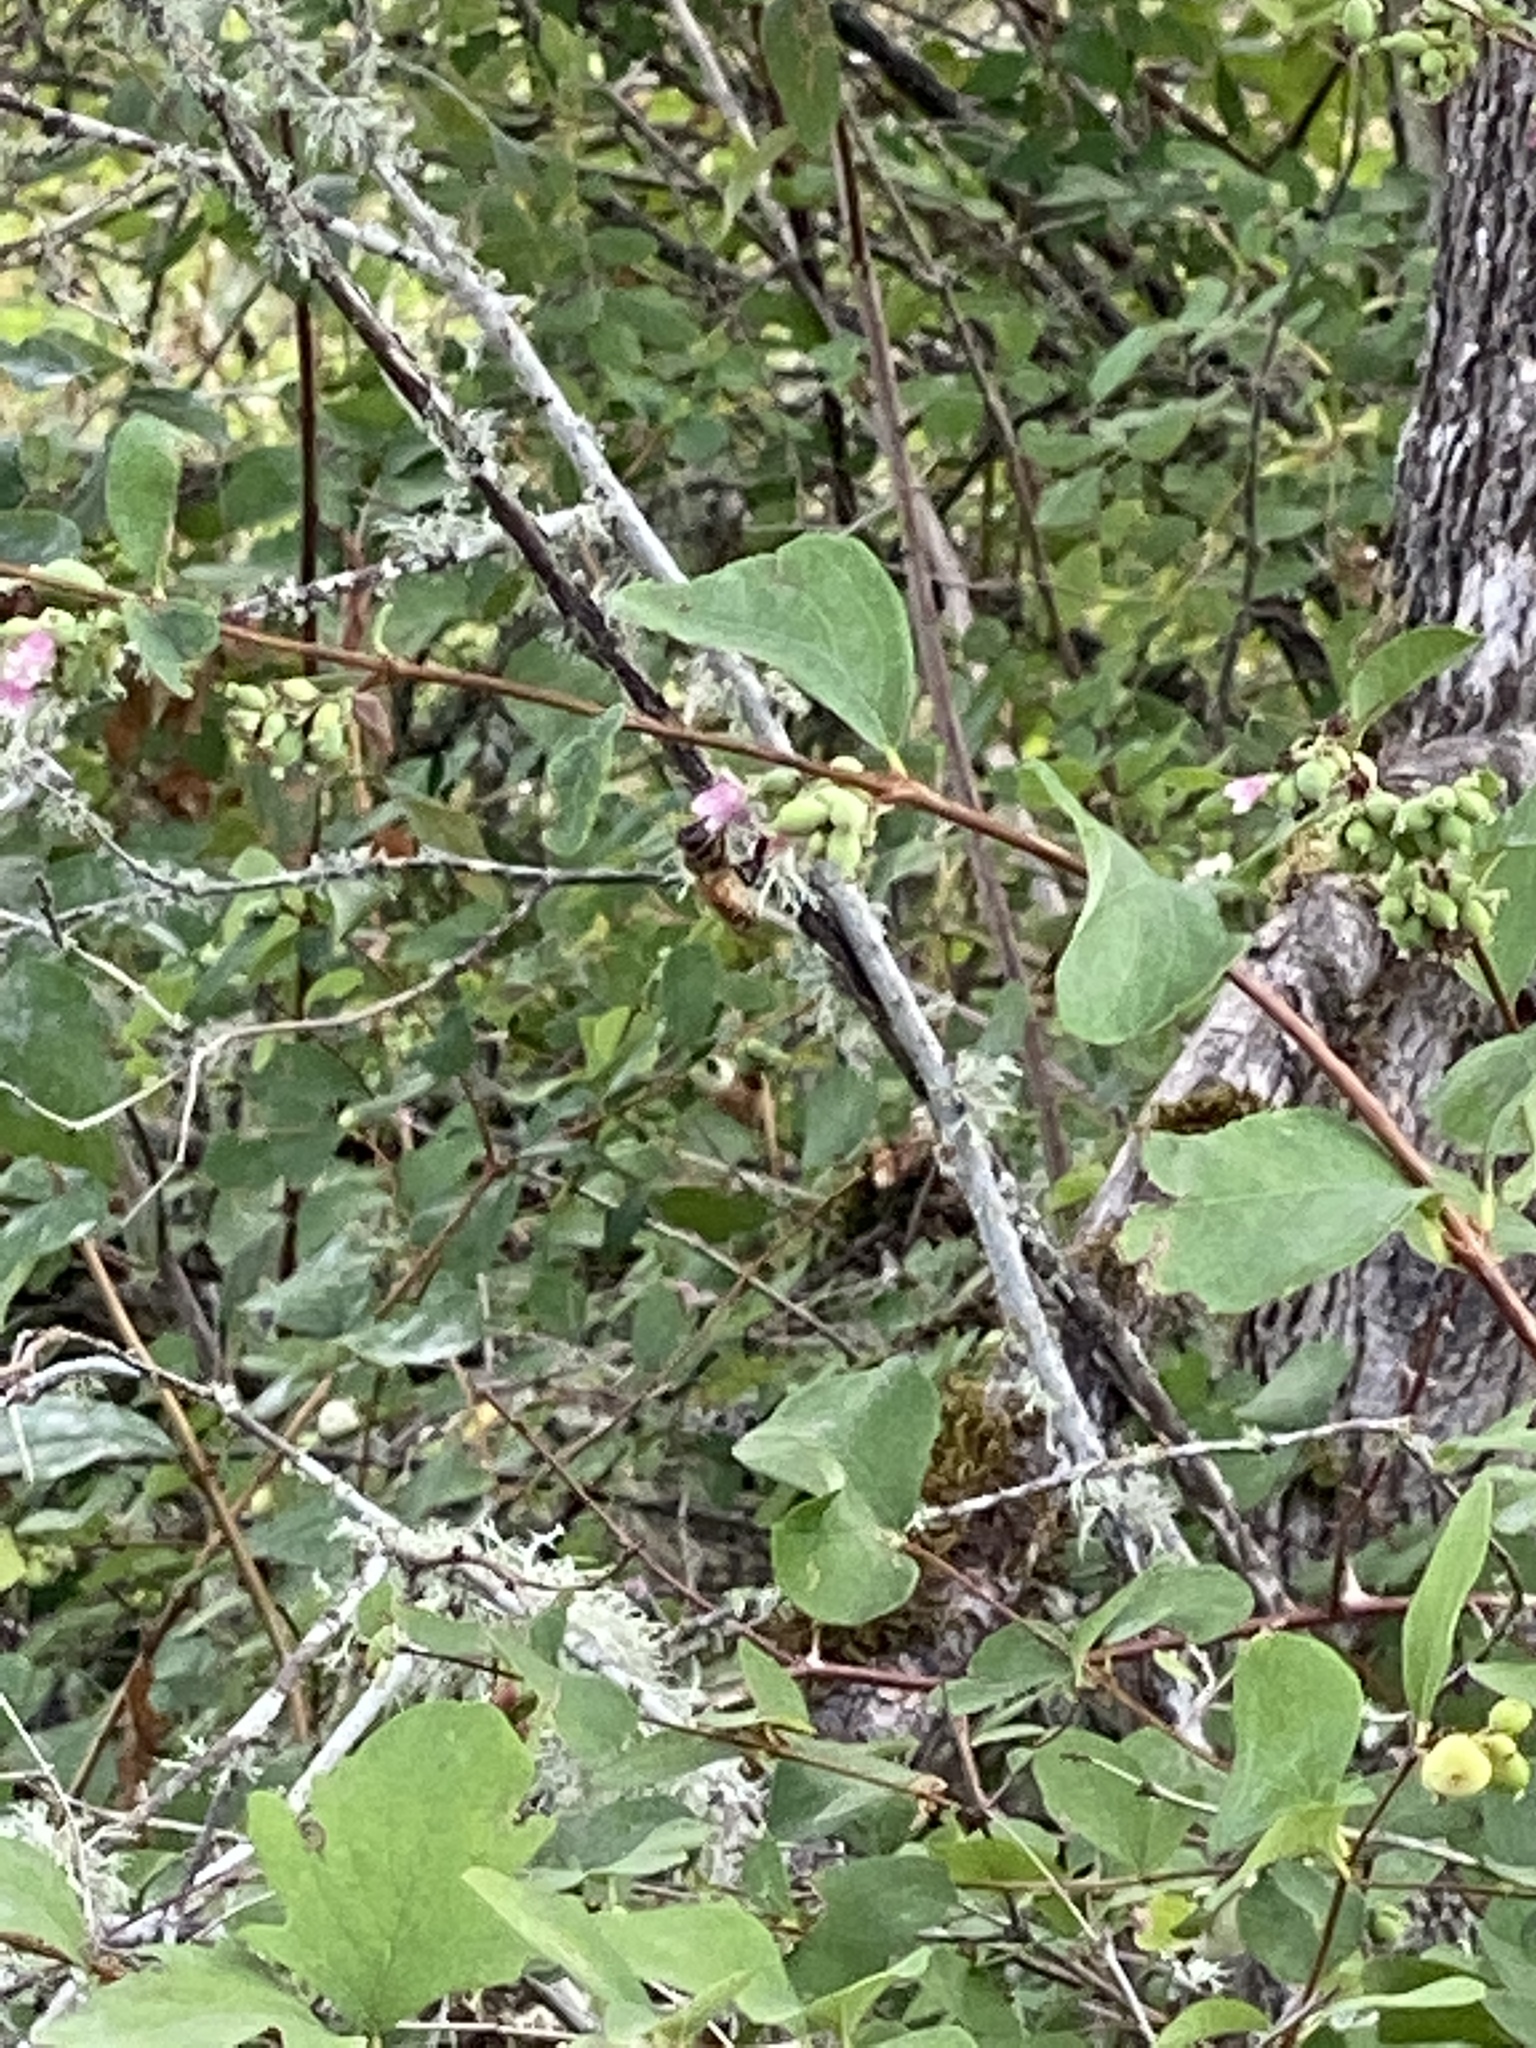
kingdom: Animalia
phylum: Arthropoda
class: Insecta
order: Hymenoptera
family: Apidae
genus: Apis
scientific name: Apis mellifera
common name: Honey bee
